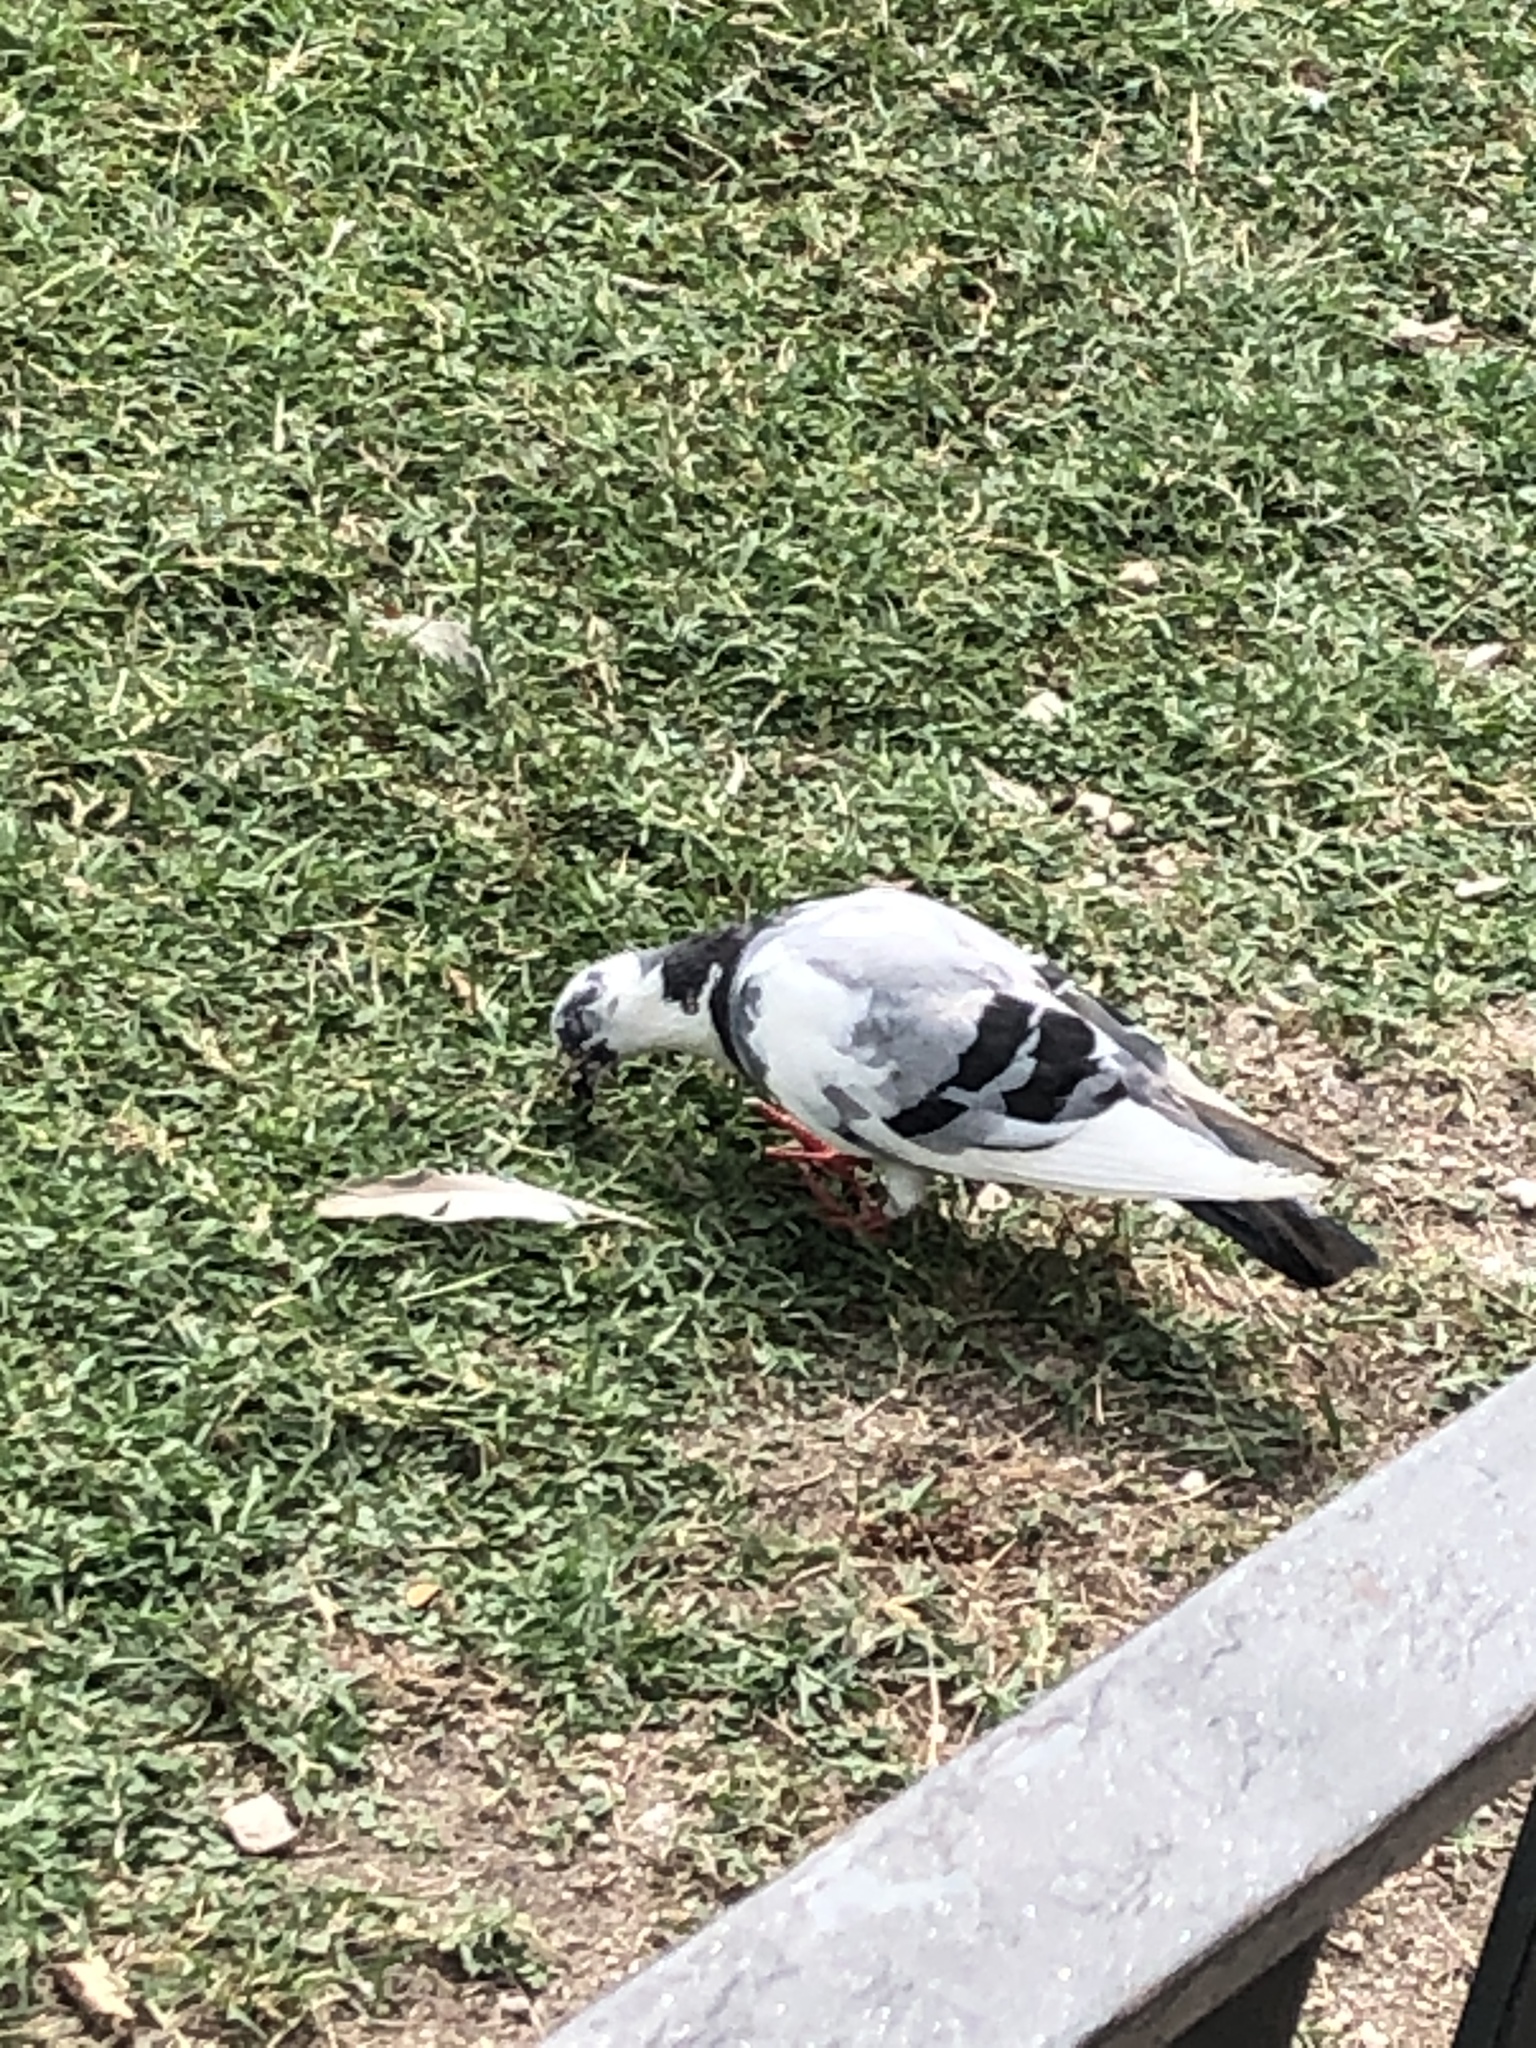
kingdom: Animalia
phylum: Chordata
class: Aves
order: Columbiformes
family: Columbidae
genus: Columba
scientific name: Columba livia
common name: Rock pigeon
